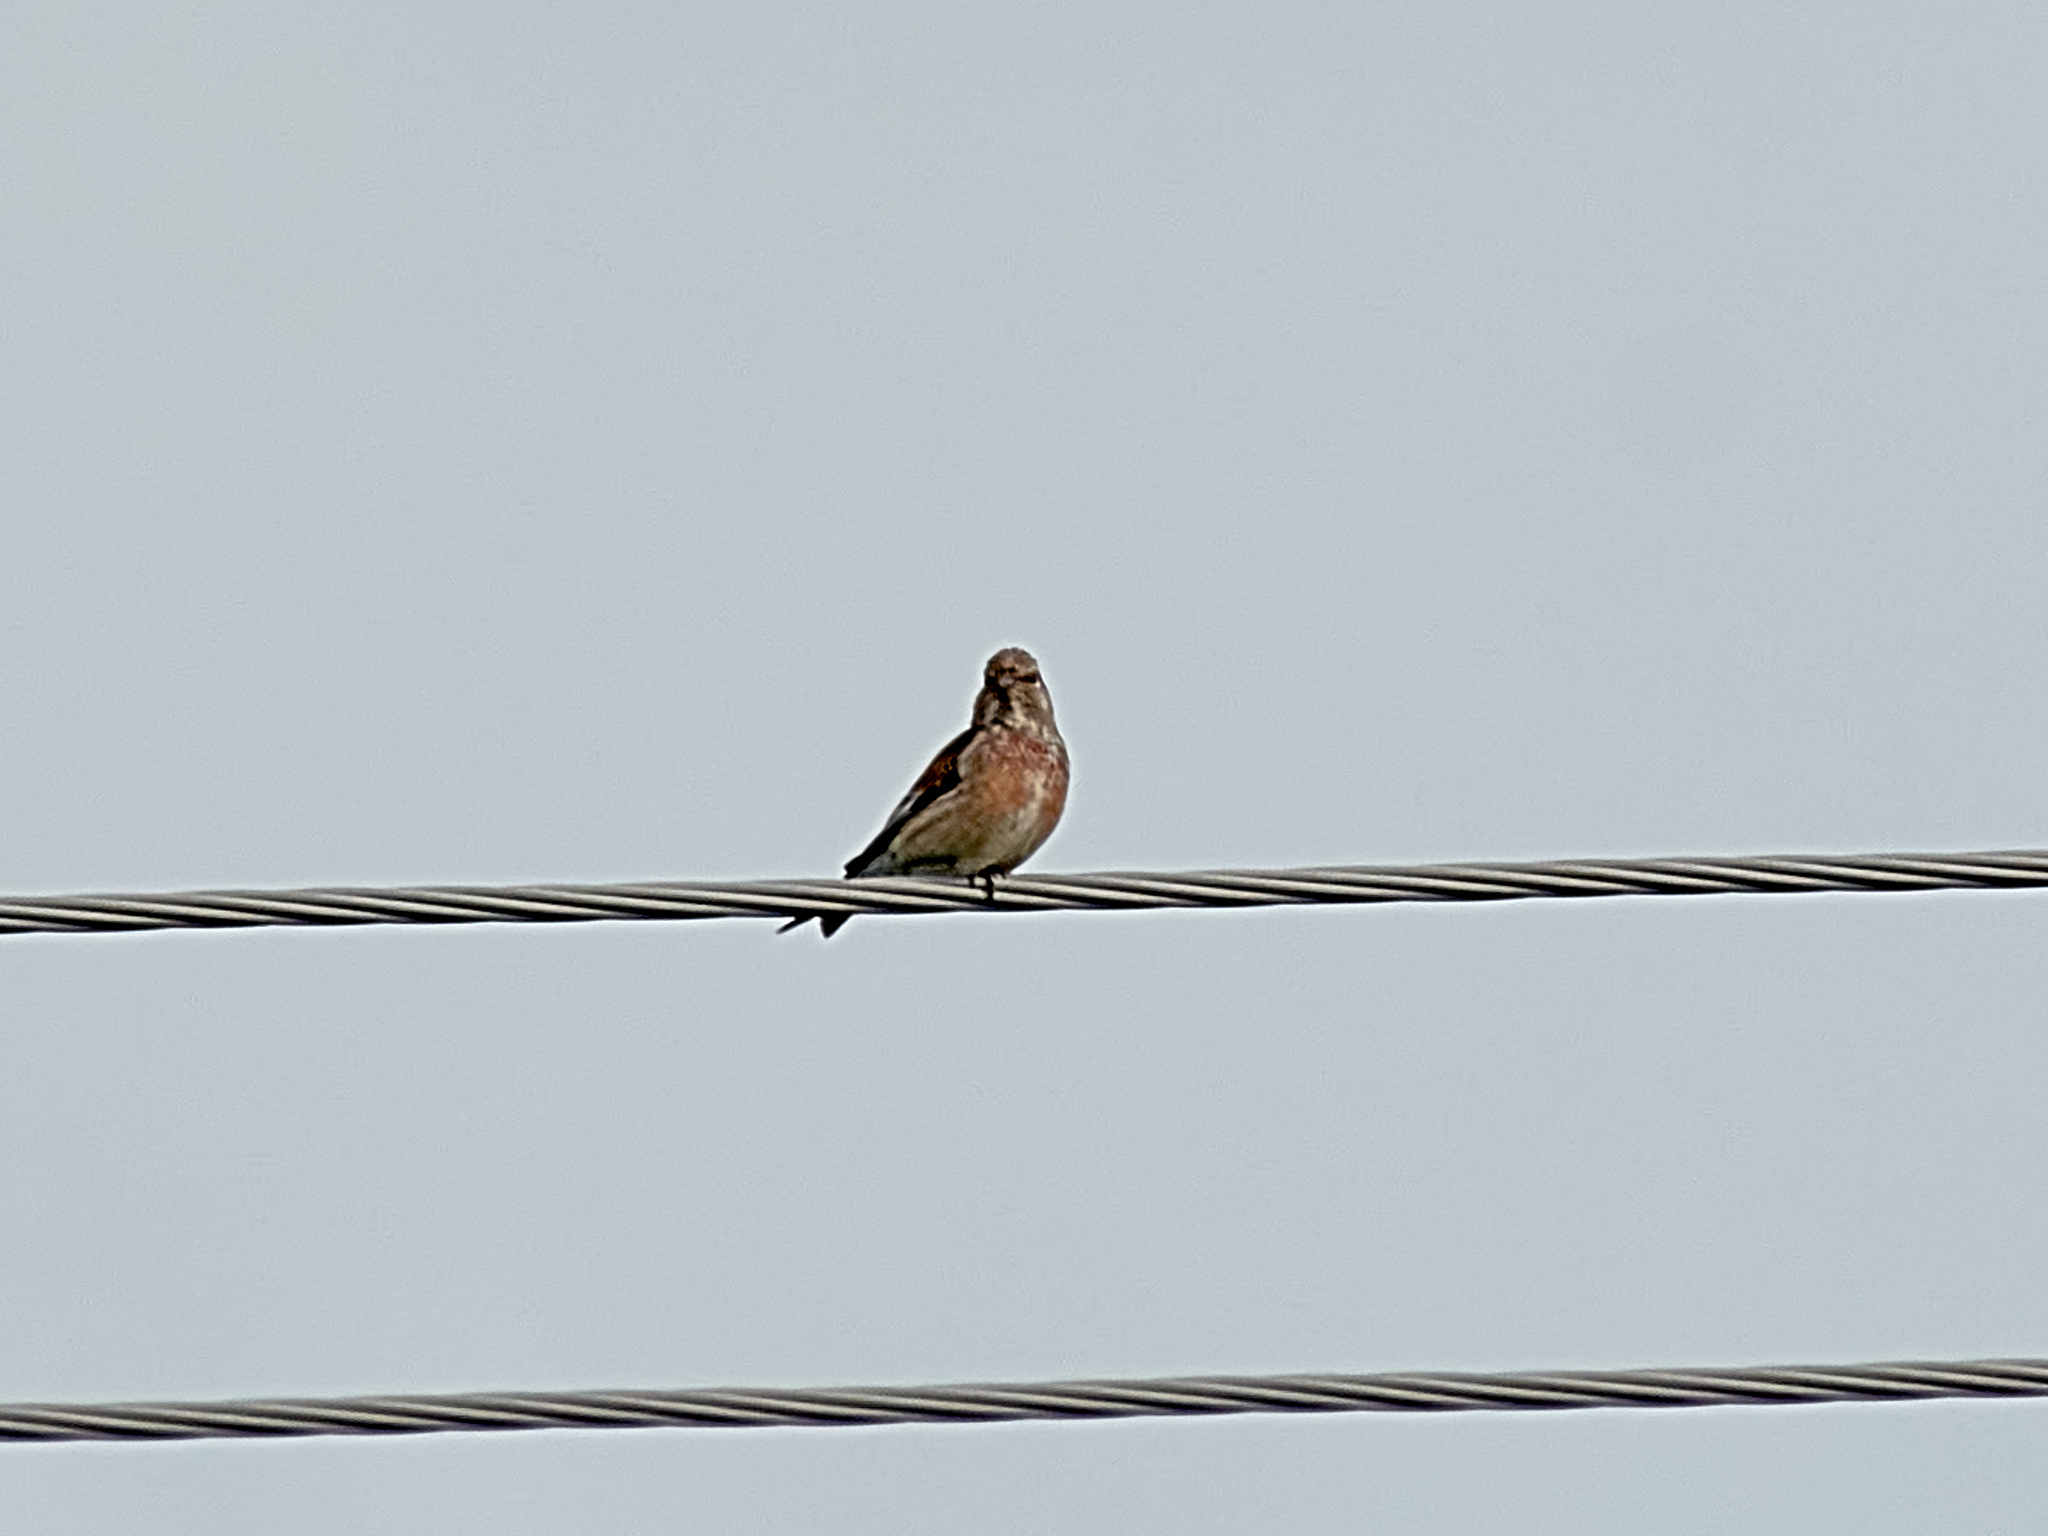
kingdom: Animalia
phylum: Chordata
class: Aves
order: Passeriformes
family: Fringillidae
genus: Linaria
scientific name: Linaria cannabina
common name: Common linnet
